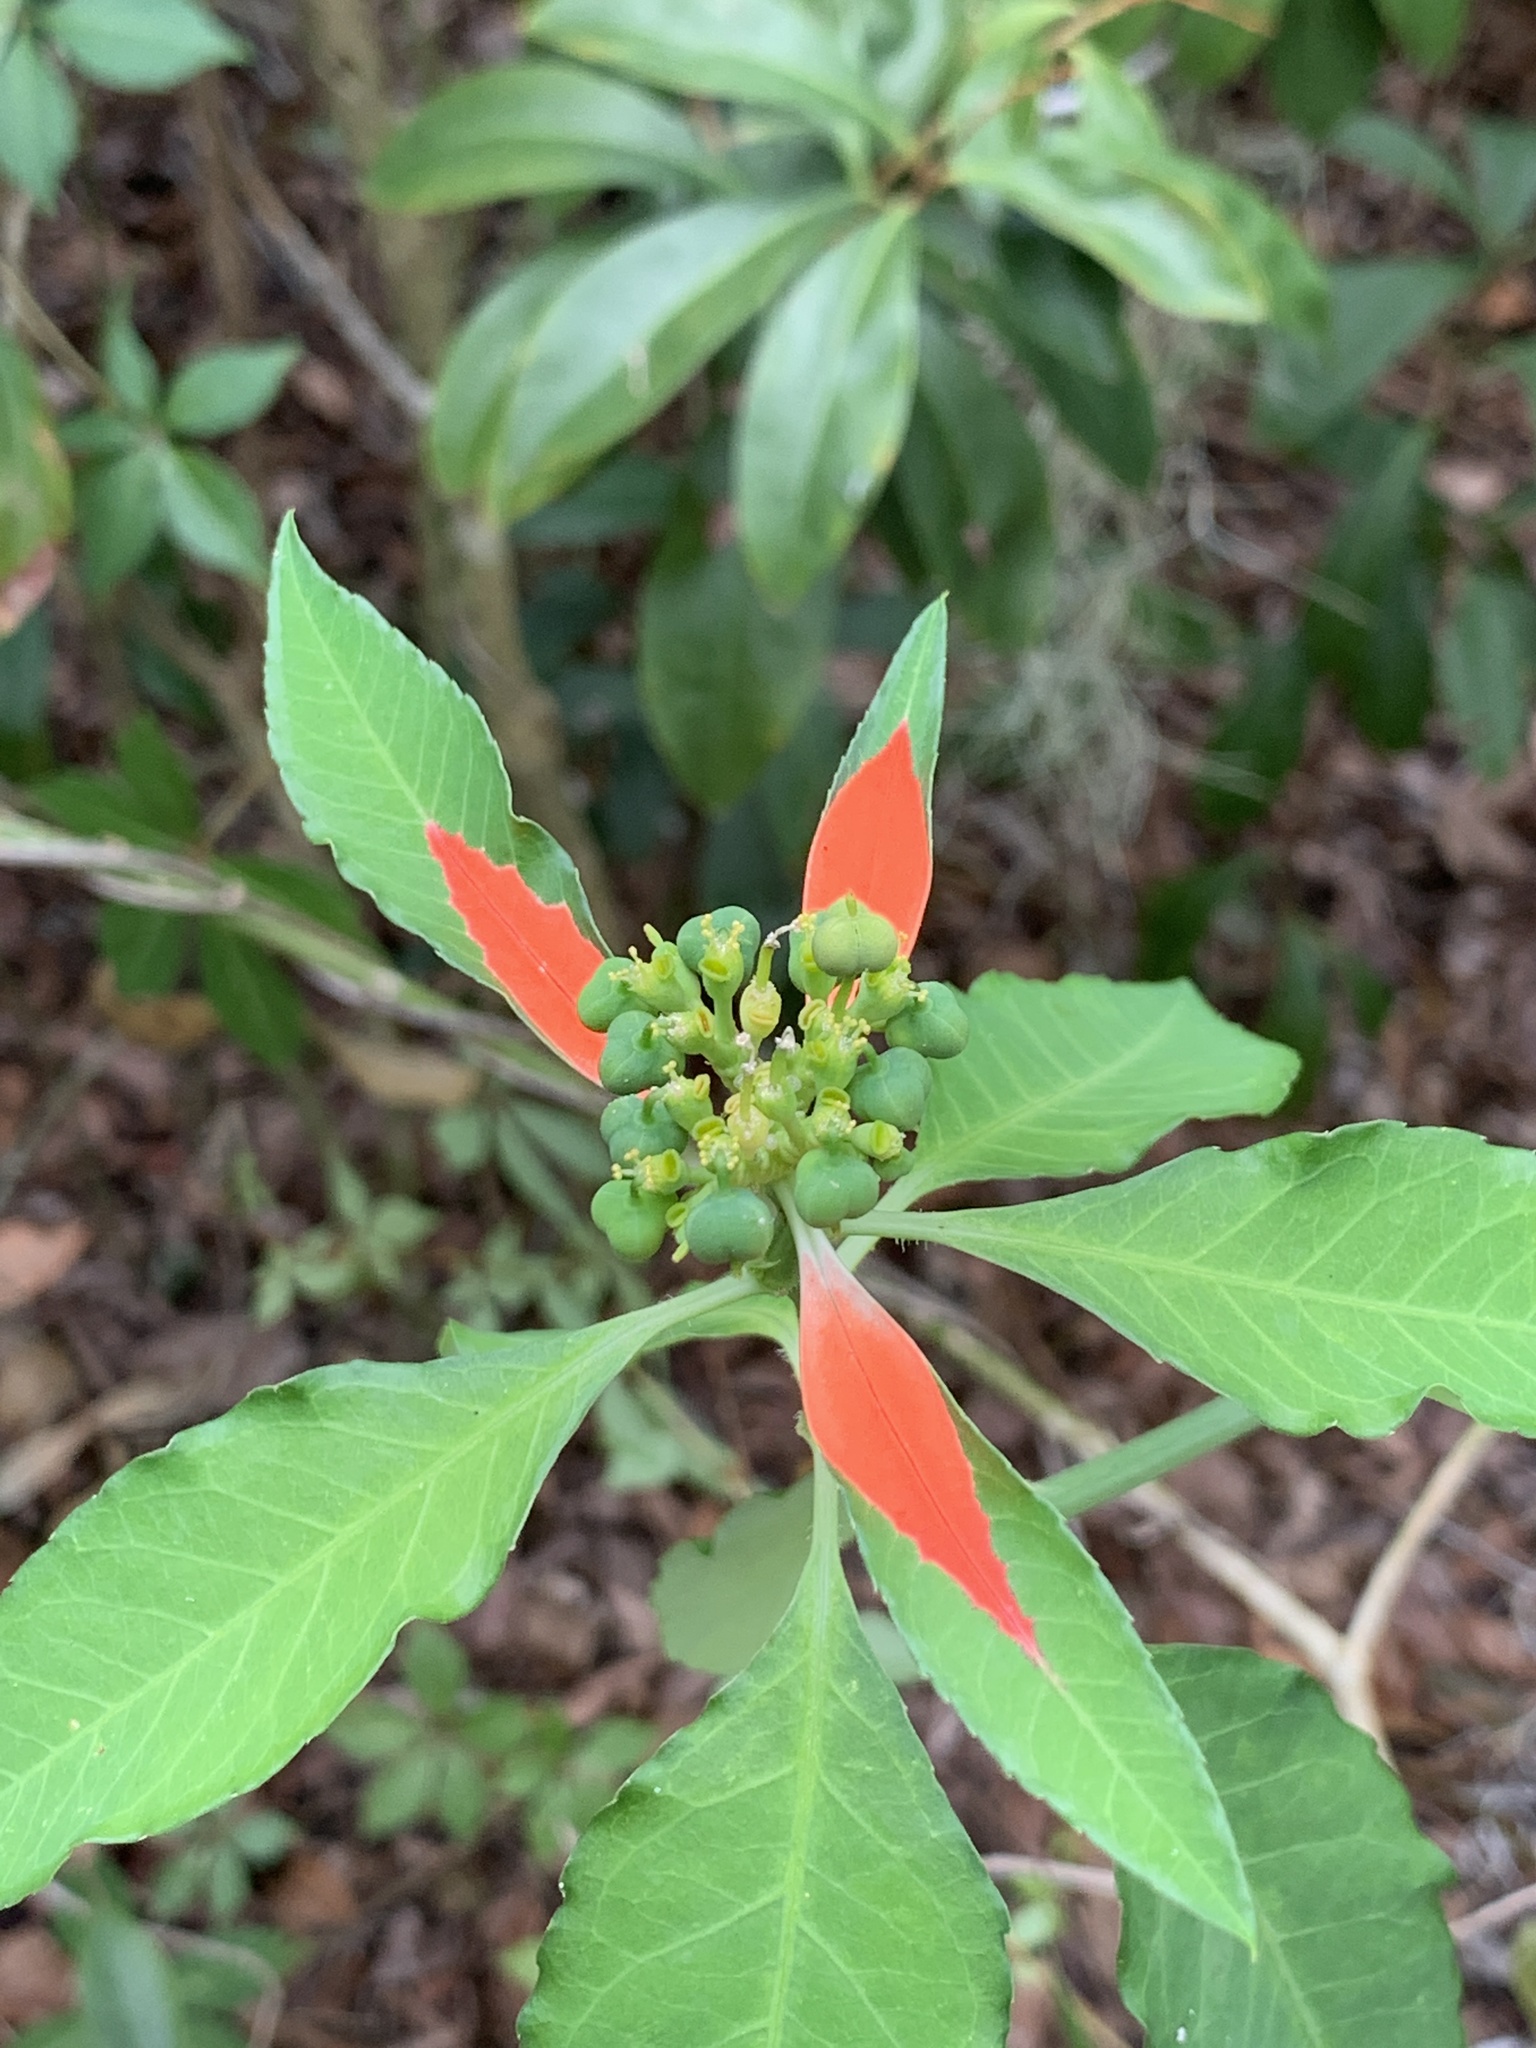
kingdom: Plantae
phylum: Tracheophyta
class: Magnoliopsida
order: Malpighiales
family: Euphorbiaceae
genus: Euphorbia
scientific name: Euphorbia heterophylla
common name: Mexican fireplant
